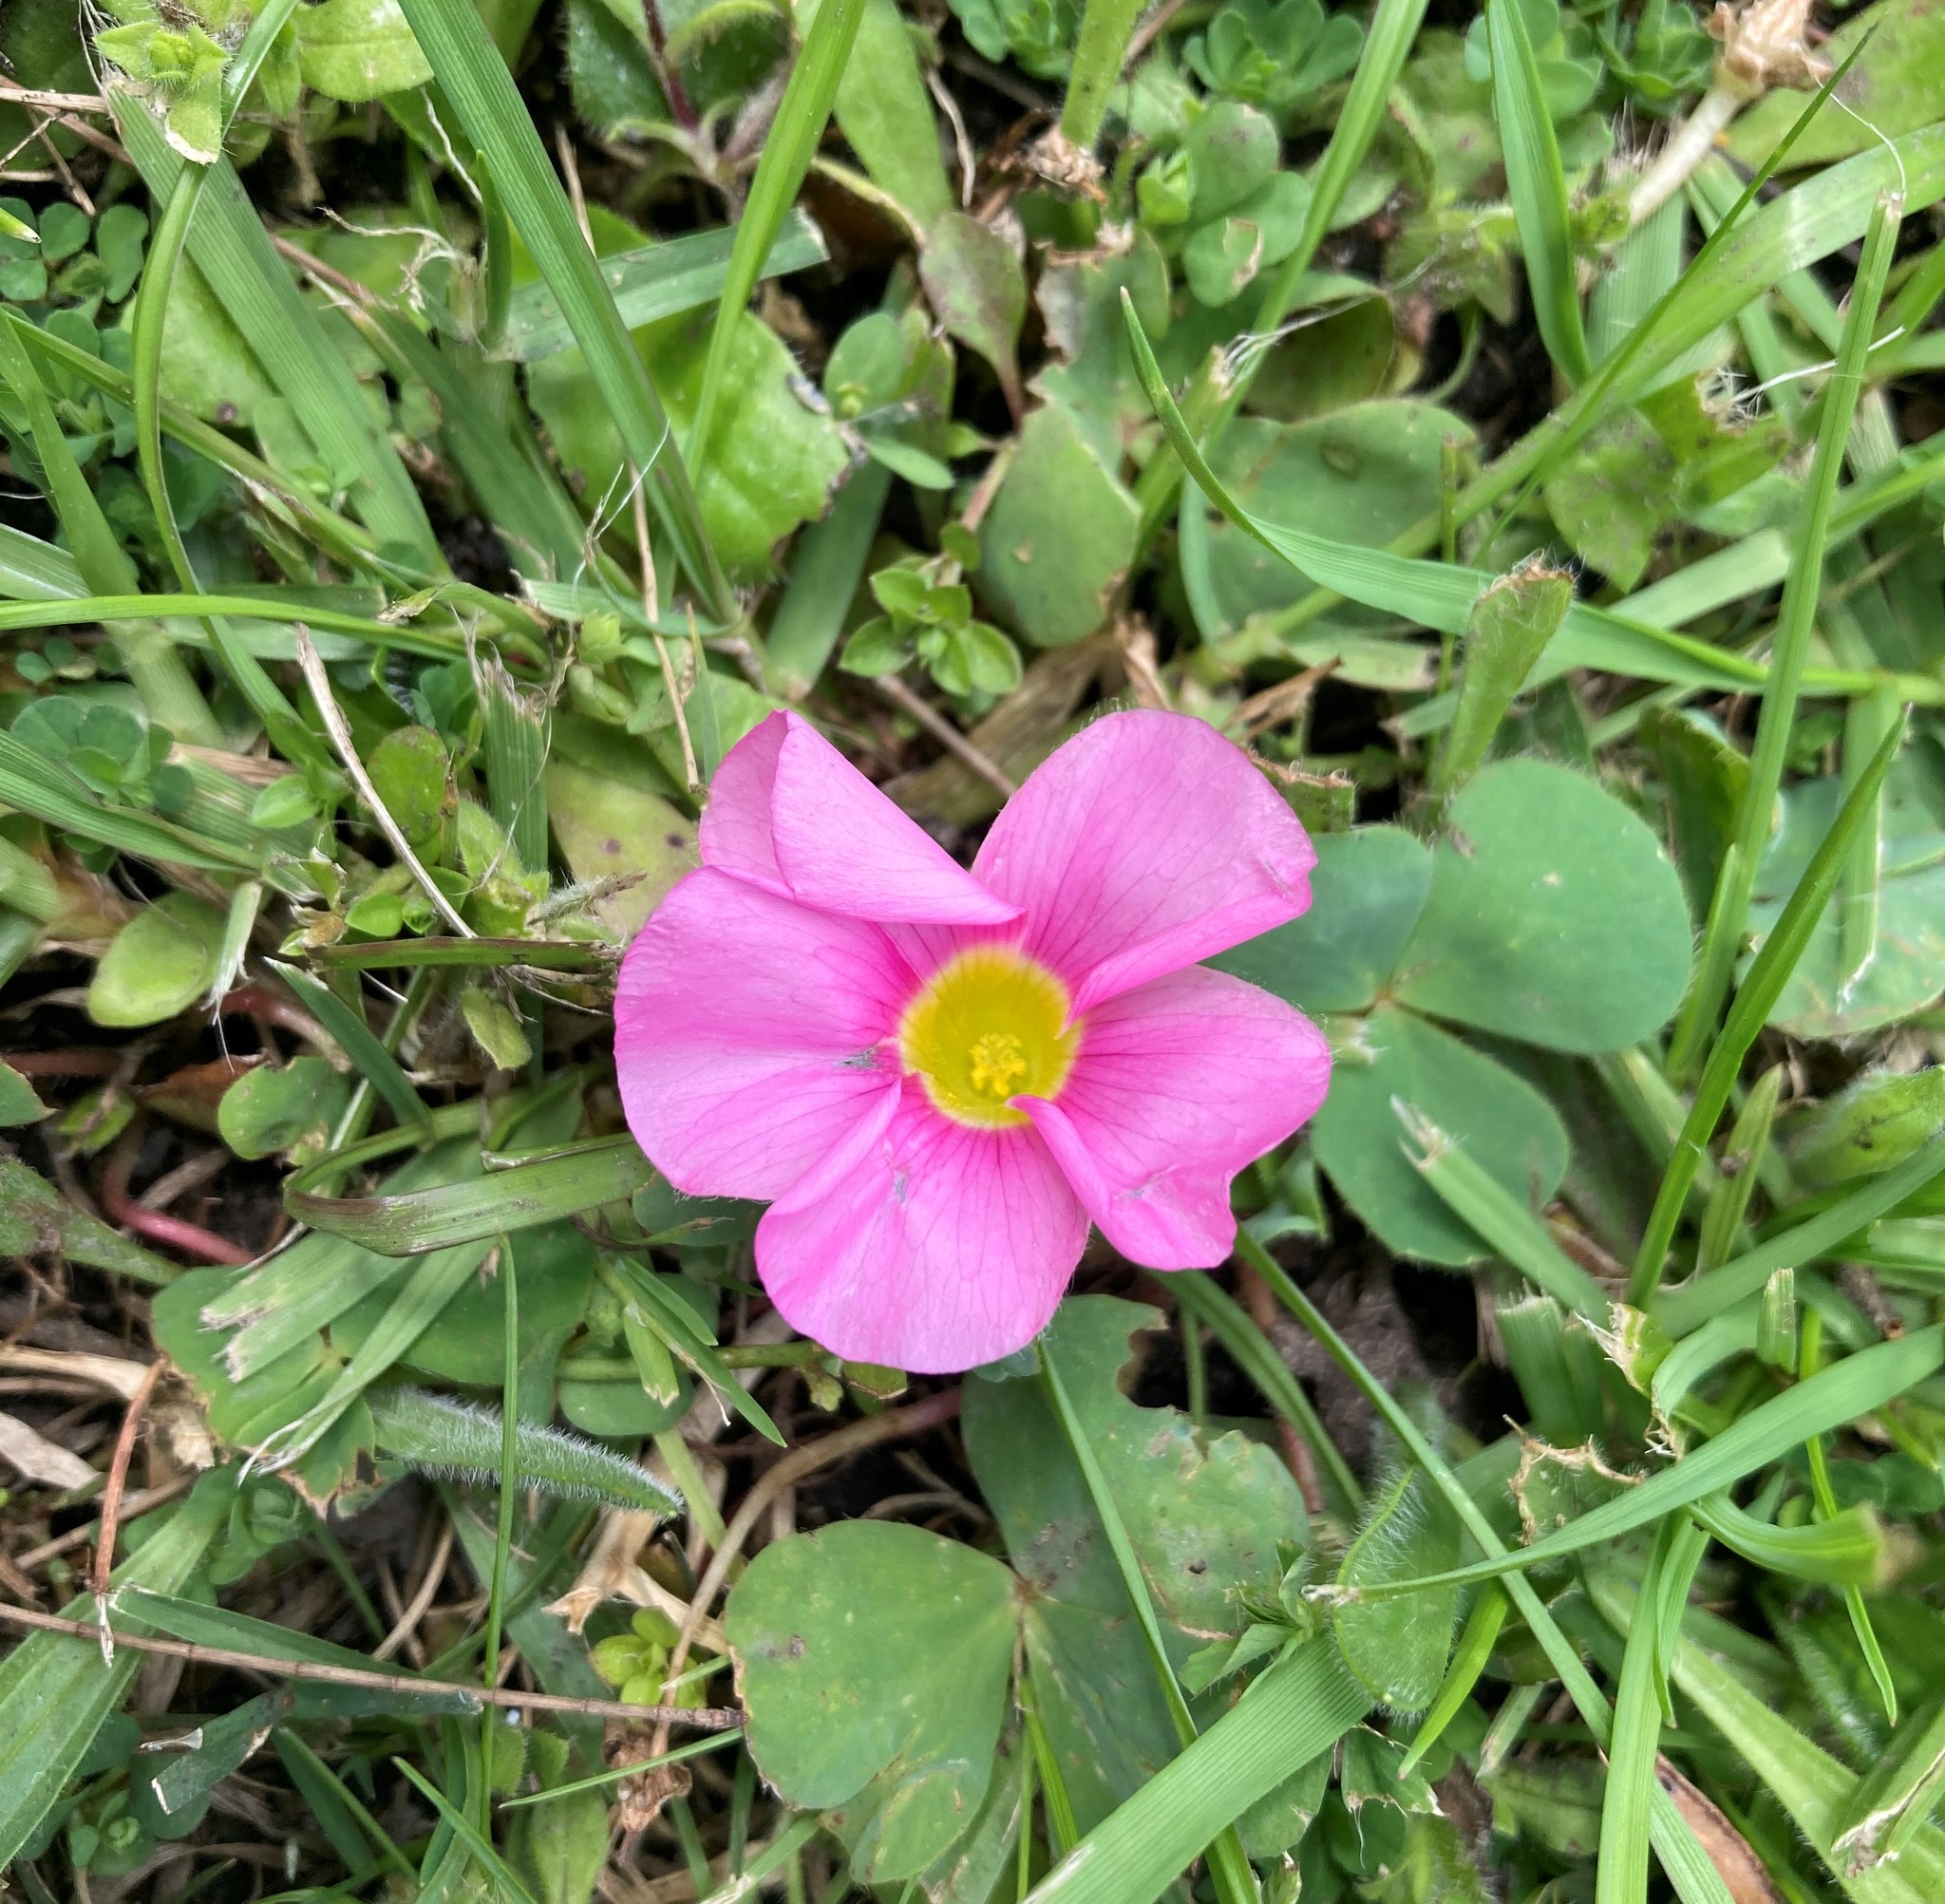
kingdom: Plantae
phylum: Tracheophyta
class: Magnoliopsida
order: Oxalidales
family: Oxalidaceae
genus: Oxalis
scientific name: Oxalis purpurea
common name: Purple woodsorrel
